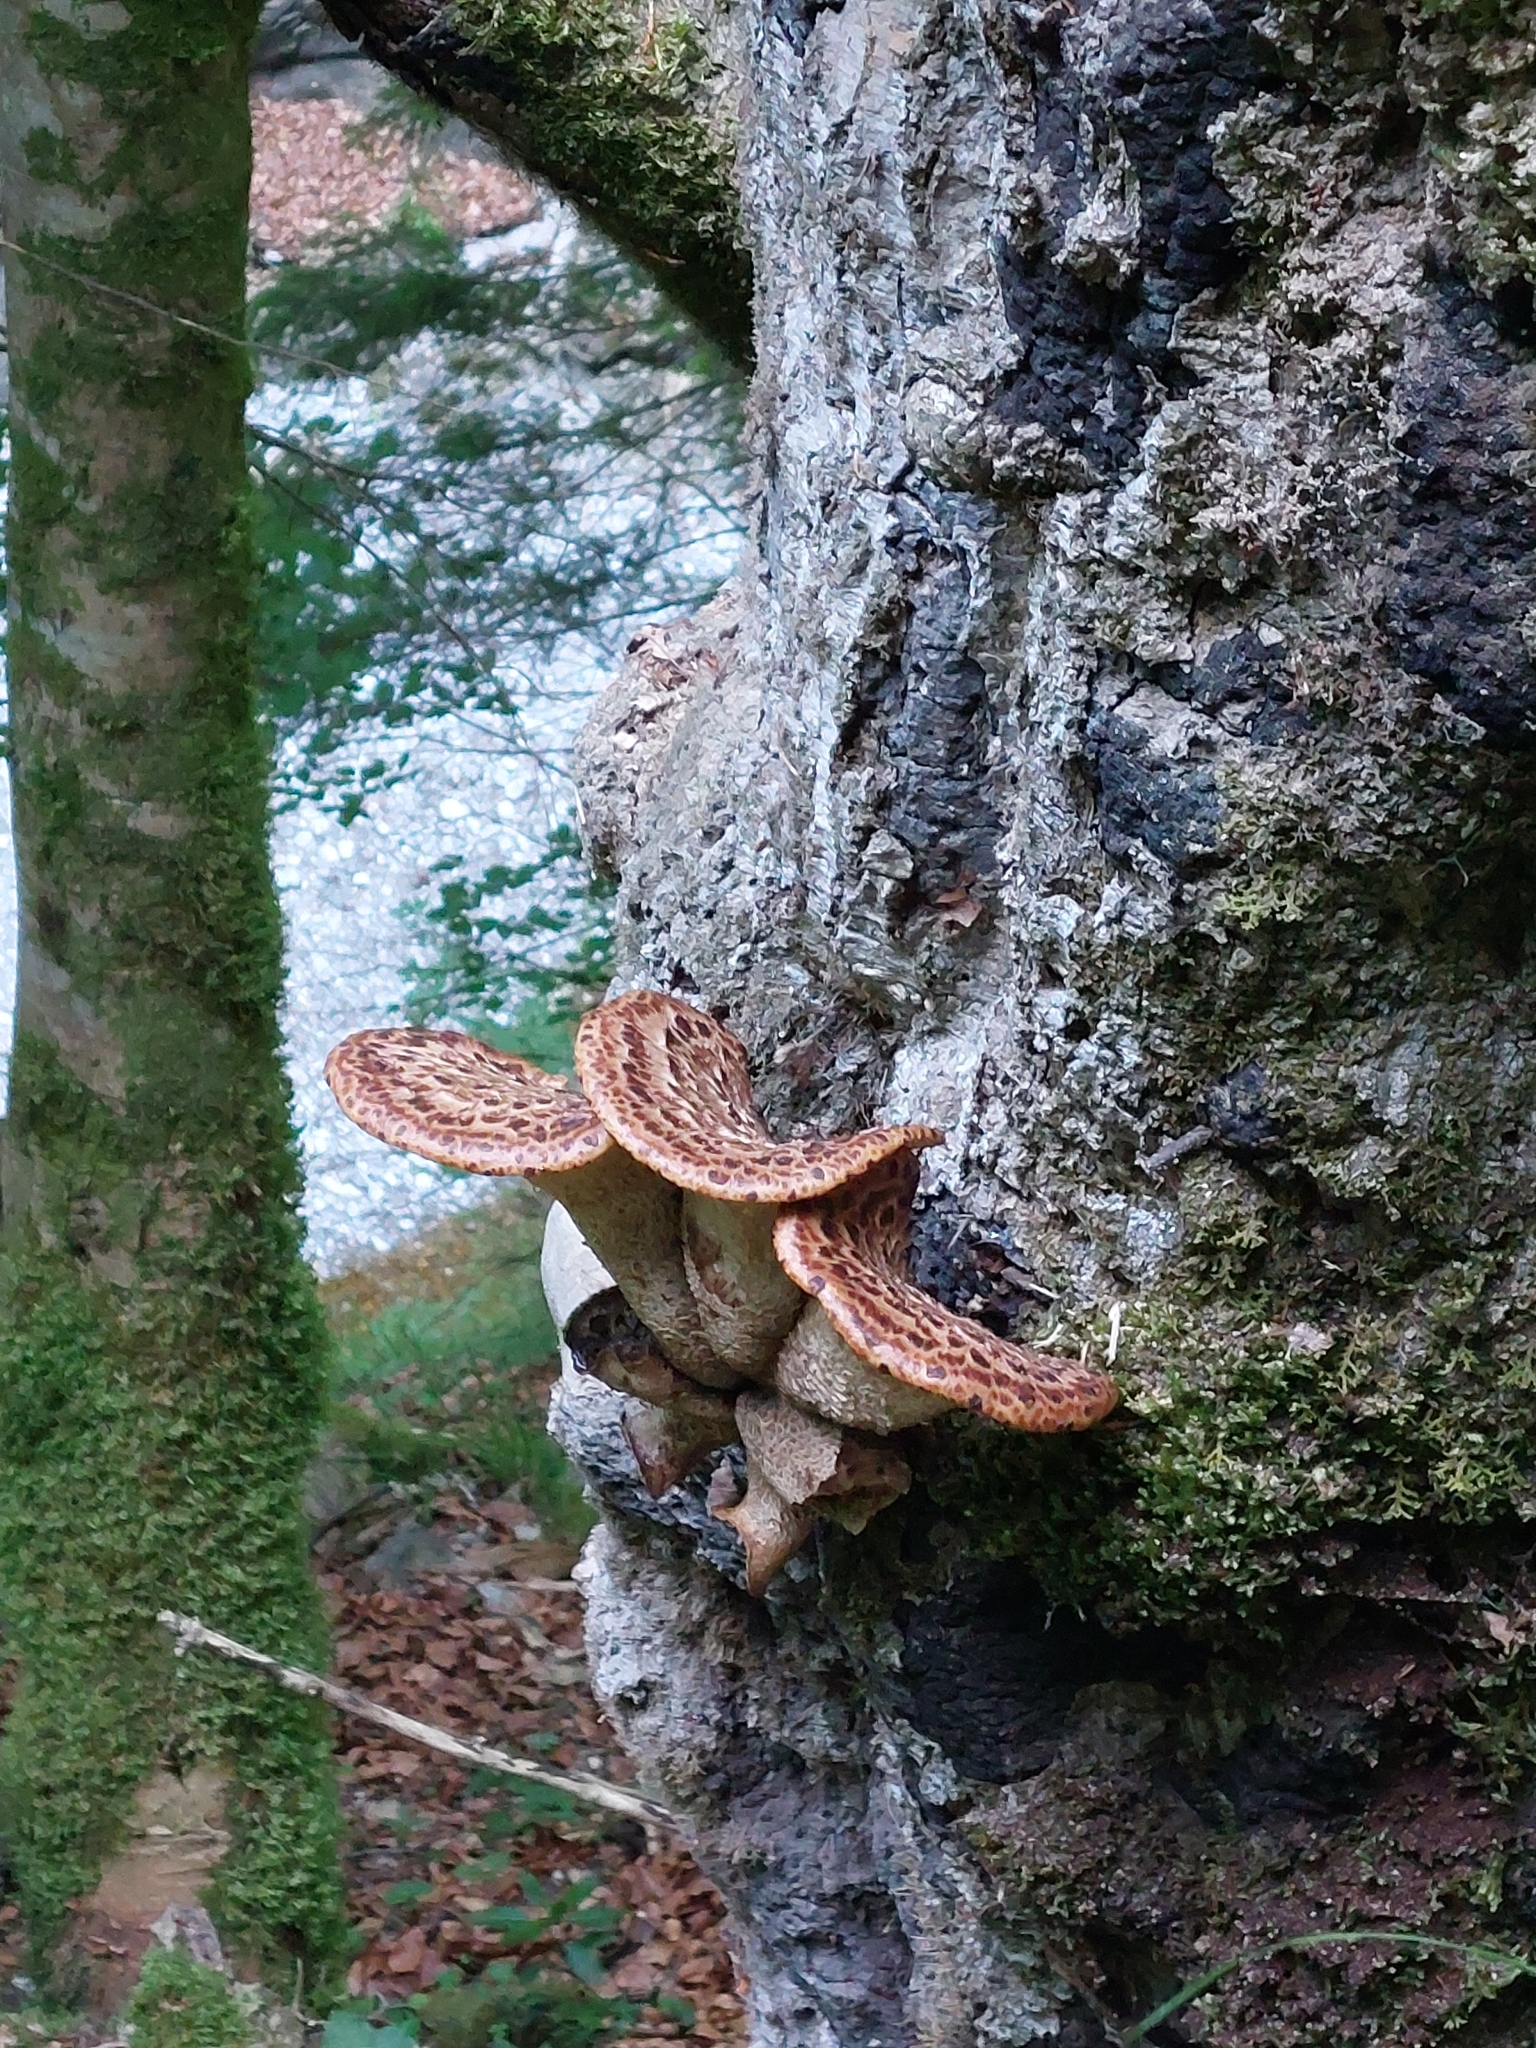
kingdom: Fungi
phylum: Basidiomycota
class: Agaricomycetes
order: Polyporales
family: Polyporaceae
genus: Cerioporus
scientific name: Cerioporus squamosus
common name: Dryad's saddle
